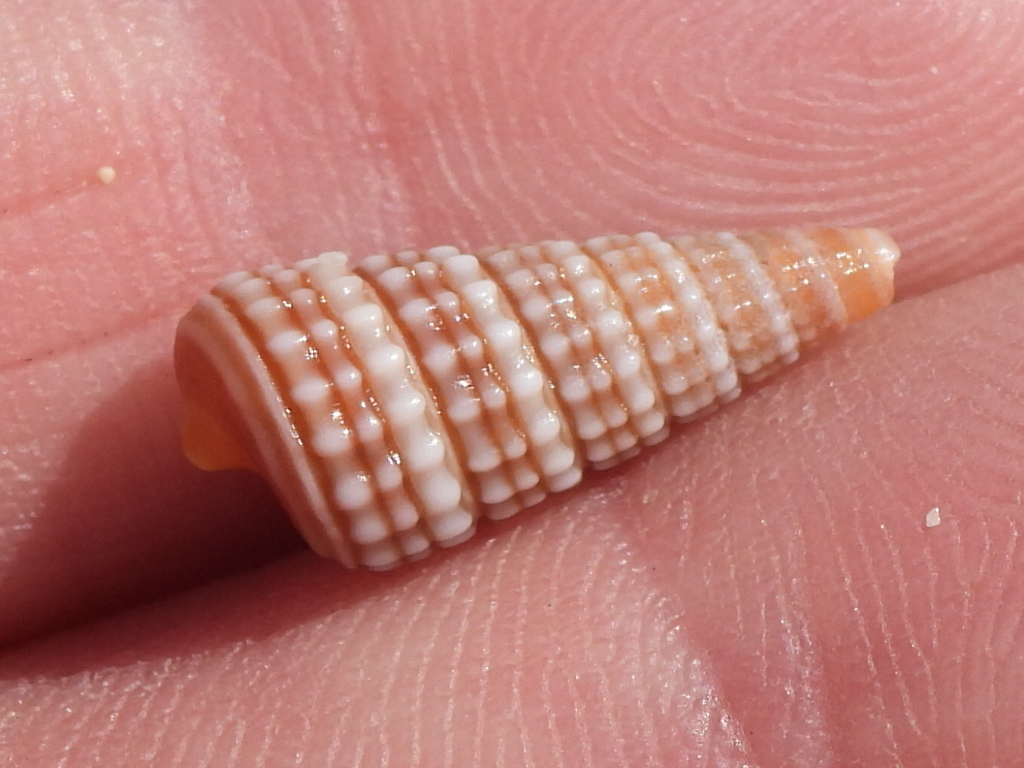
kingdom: Animalia
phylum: Mollusca
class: Gastropoda
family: Potamididae
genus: Pirenella
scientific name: Pirenella cingulata
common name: Girdled horn shell
